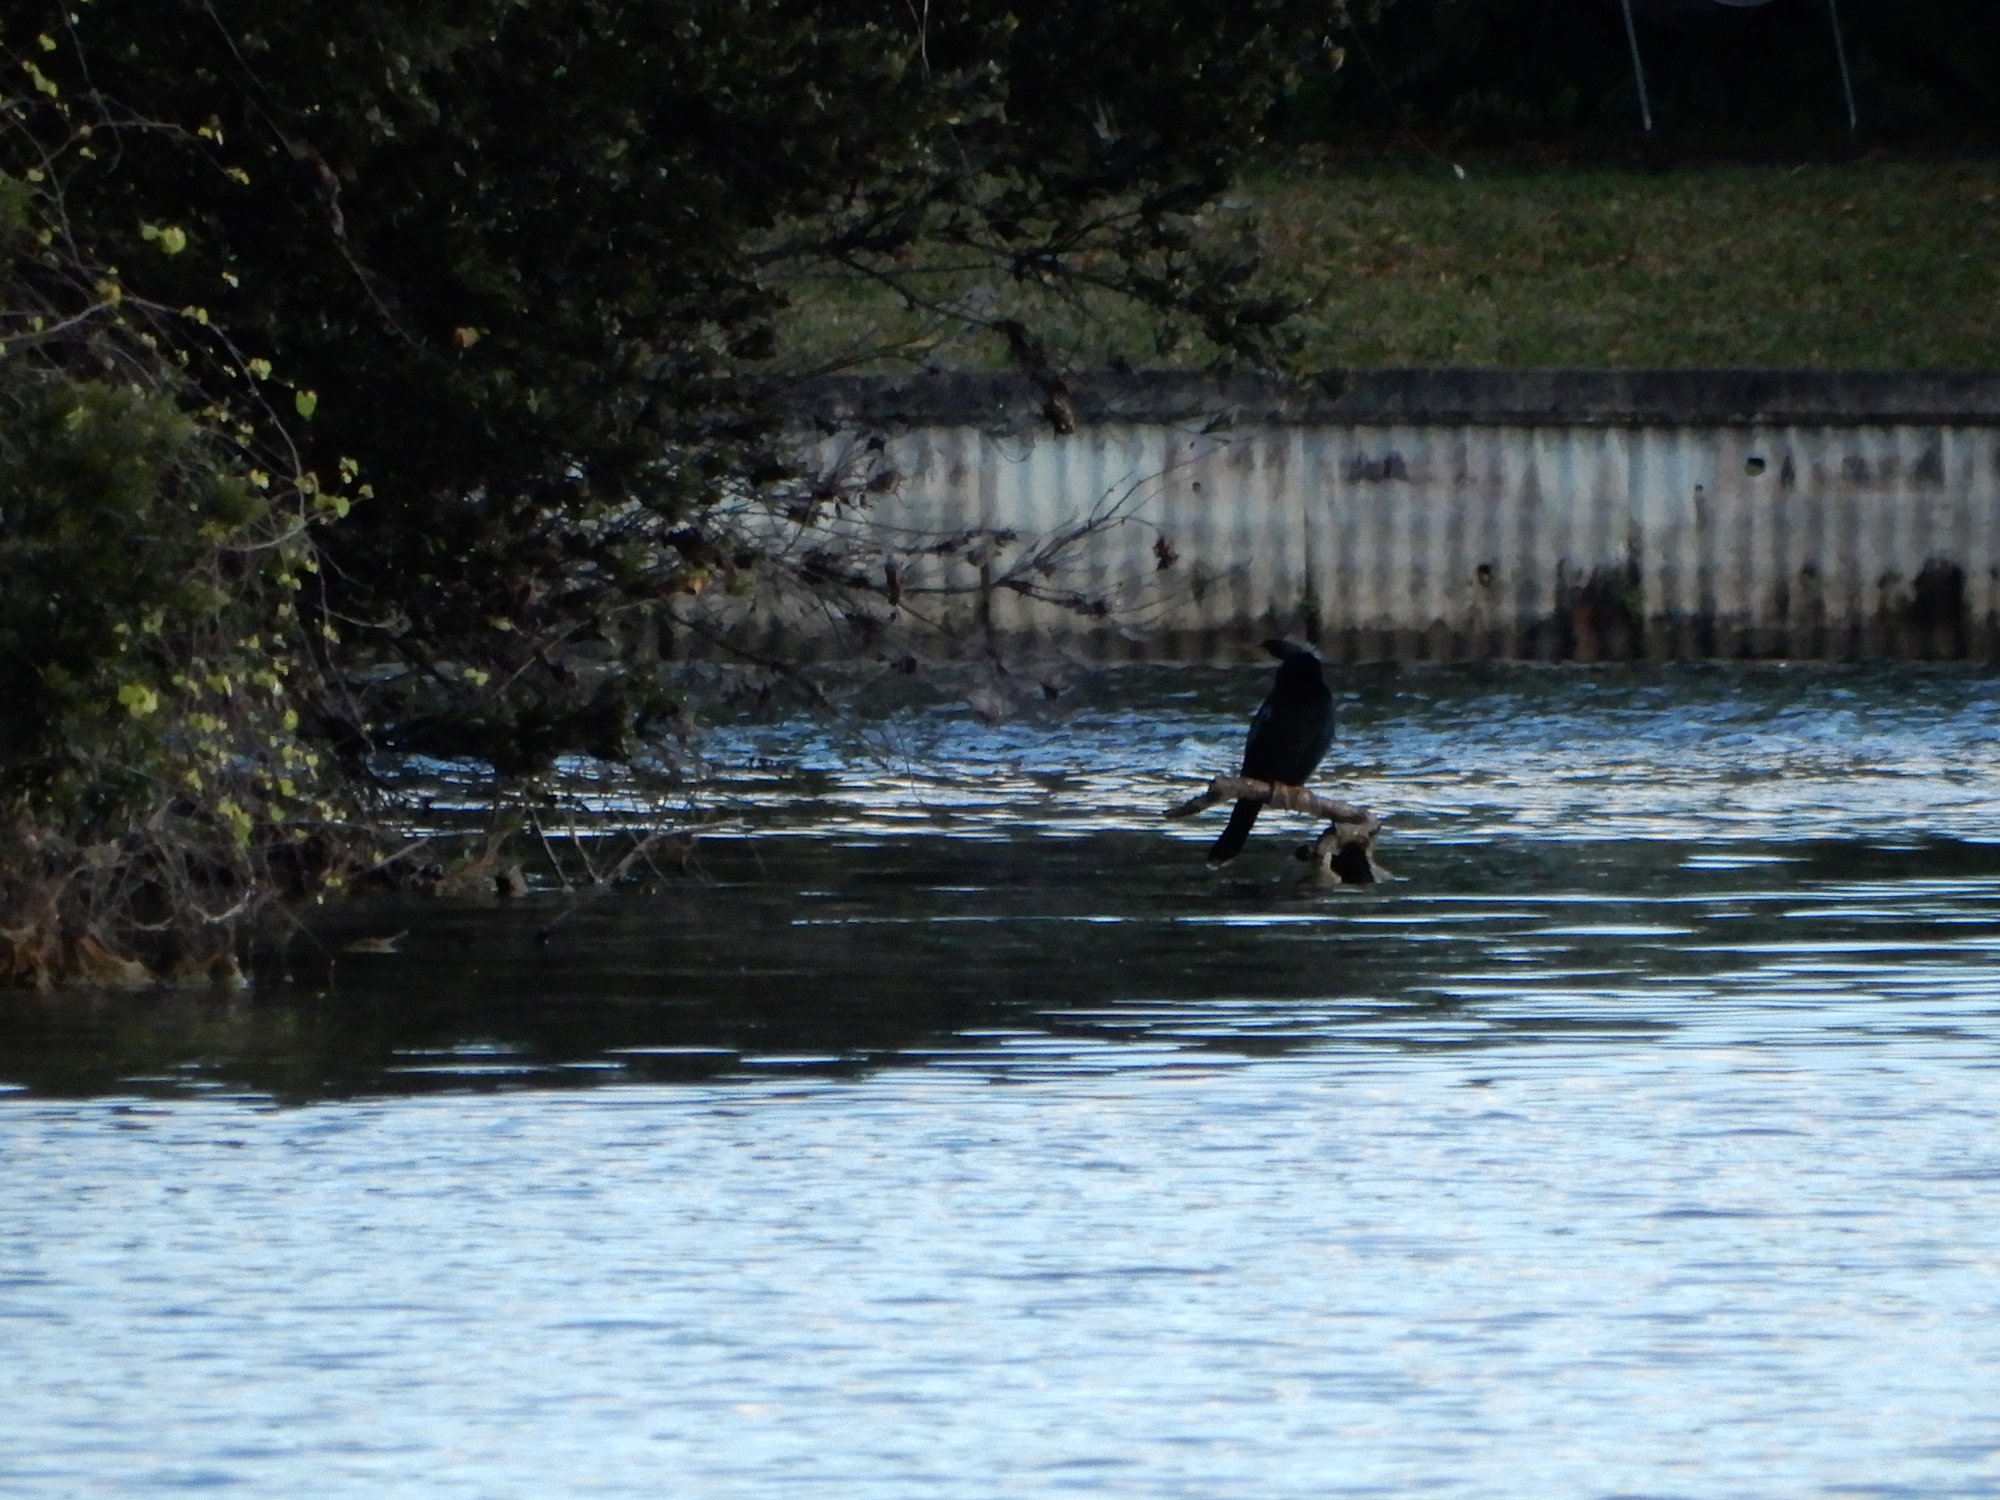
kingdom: Animalia
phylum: Chordata
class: Aves
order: Suliformes
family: Anhingidae
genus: Anhinga
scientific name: Anhinga anhinga
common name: Anhinga
